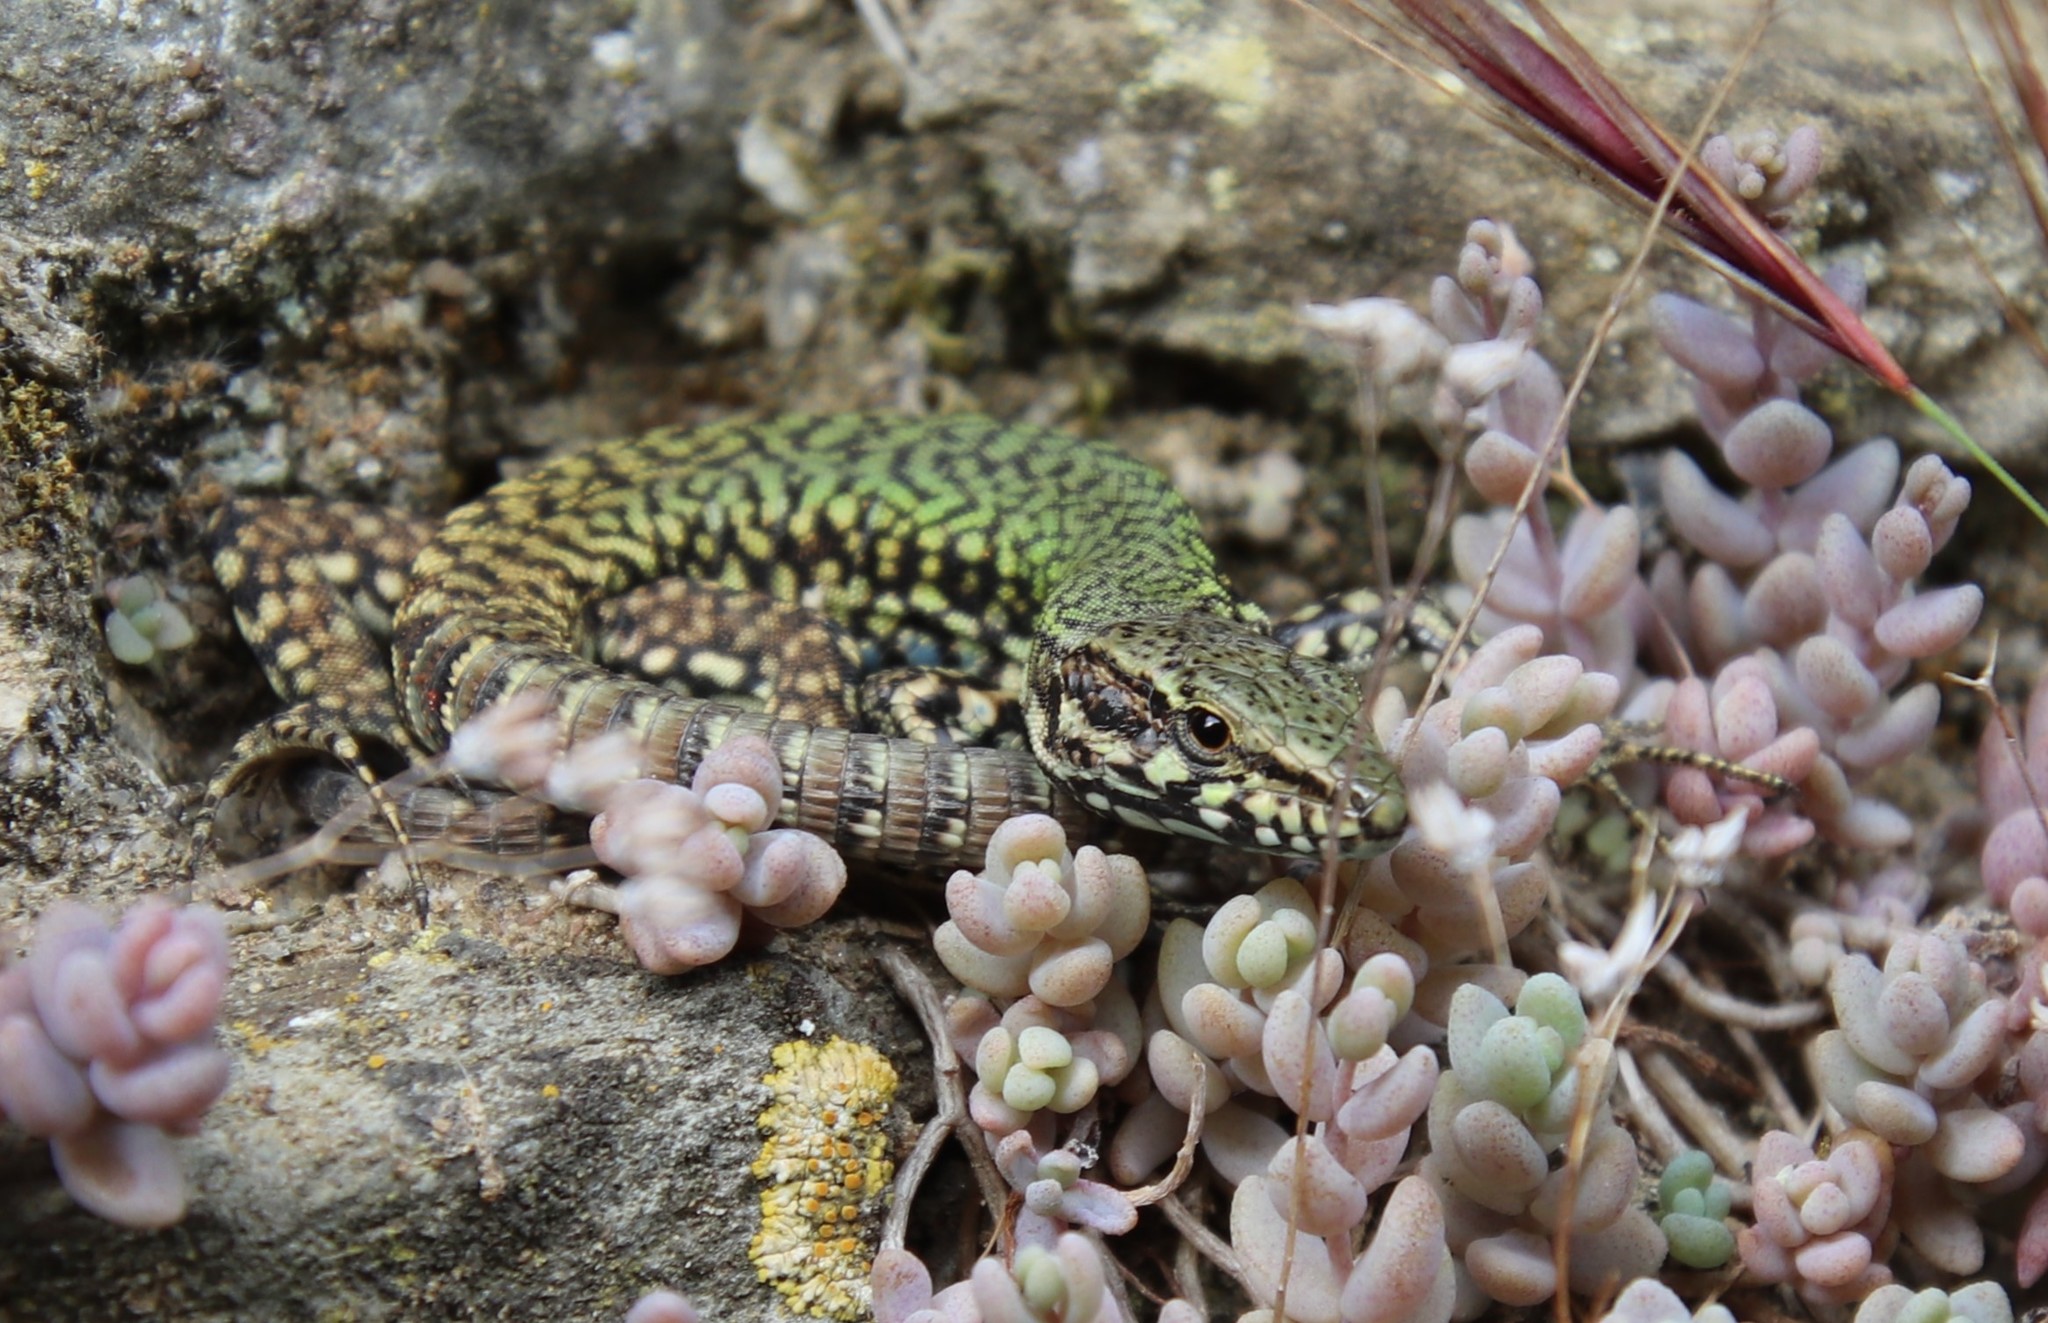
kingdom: Animalia
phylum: Chordata
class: Squamata
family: Lacertidae
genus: Podarcis
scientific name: Podarcis muralis
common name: Common wall lizard
